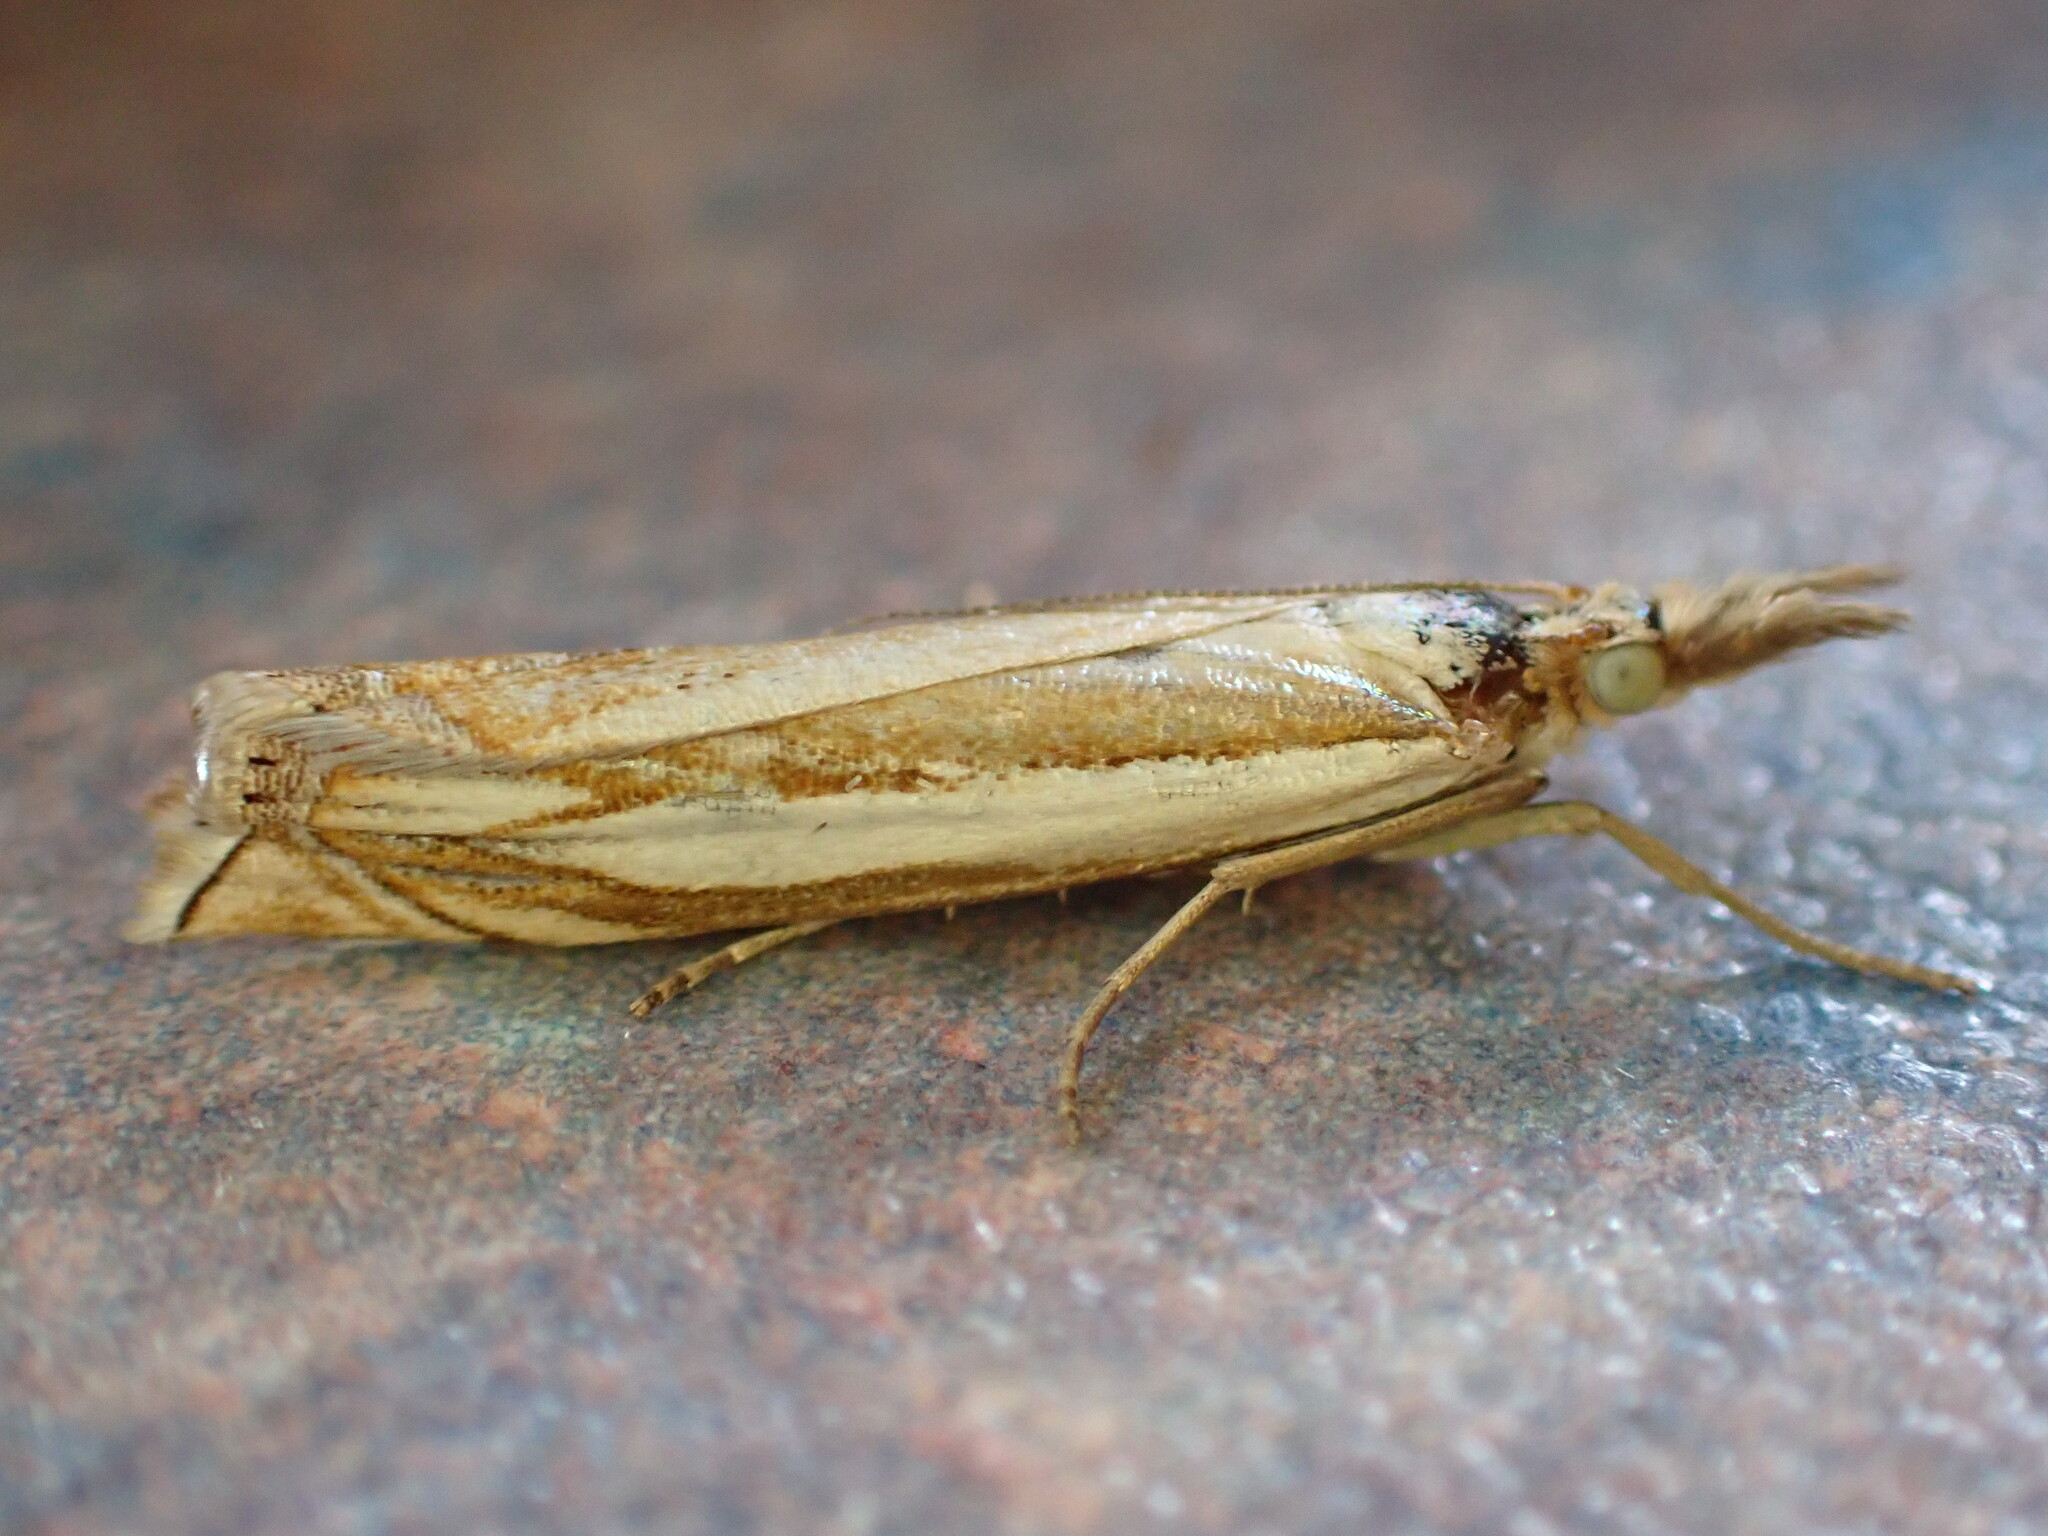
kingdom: Animalia
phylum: Arthropoda
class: Insecta
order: Lepidoptera
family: Crambidae
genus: Crambus
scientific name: Crambus pascuella
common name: Inlaid grass-veneer
